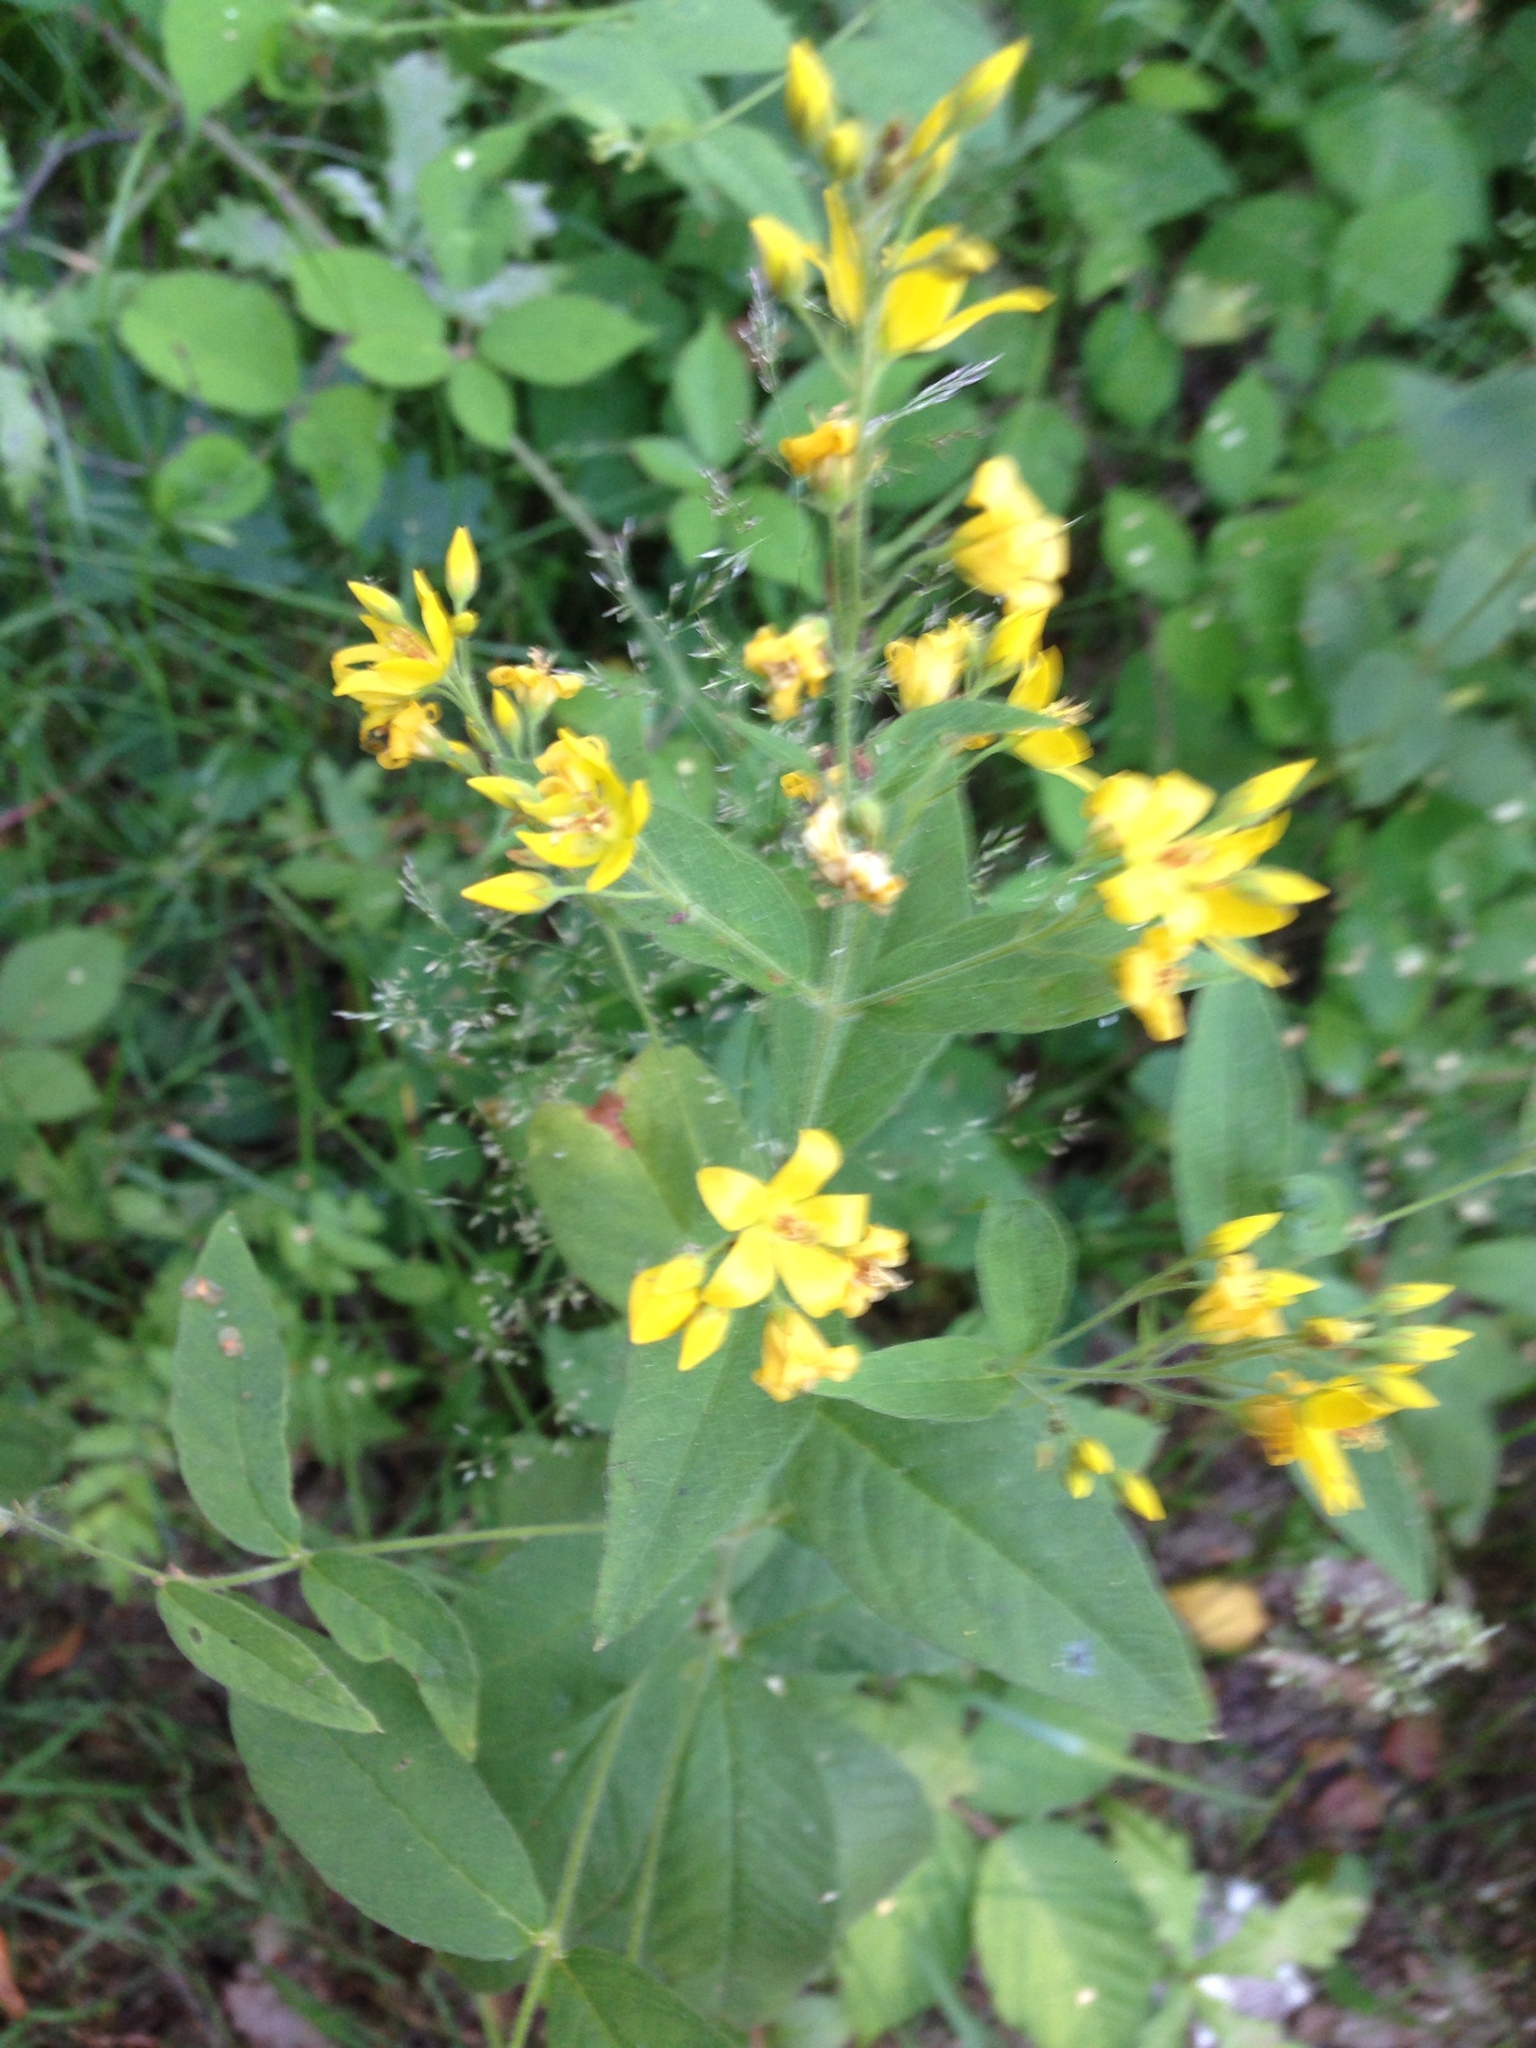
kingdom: Plantae
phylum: Tracheophyta
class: Magnoliopsida
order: Ericales
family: Primulaceae
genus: Lysimachia
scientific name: Lysimachia vulgaris
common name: Yellow loosestrife
